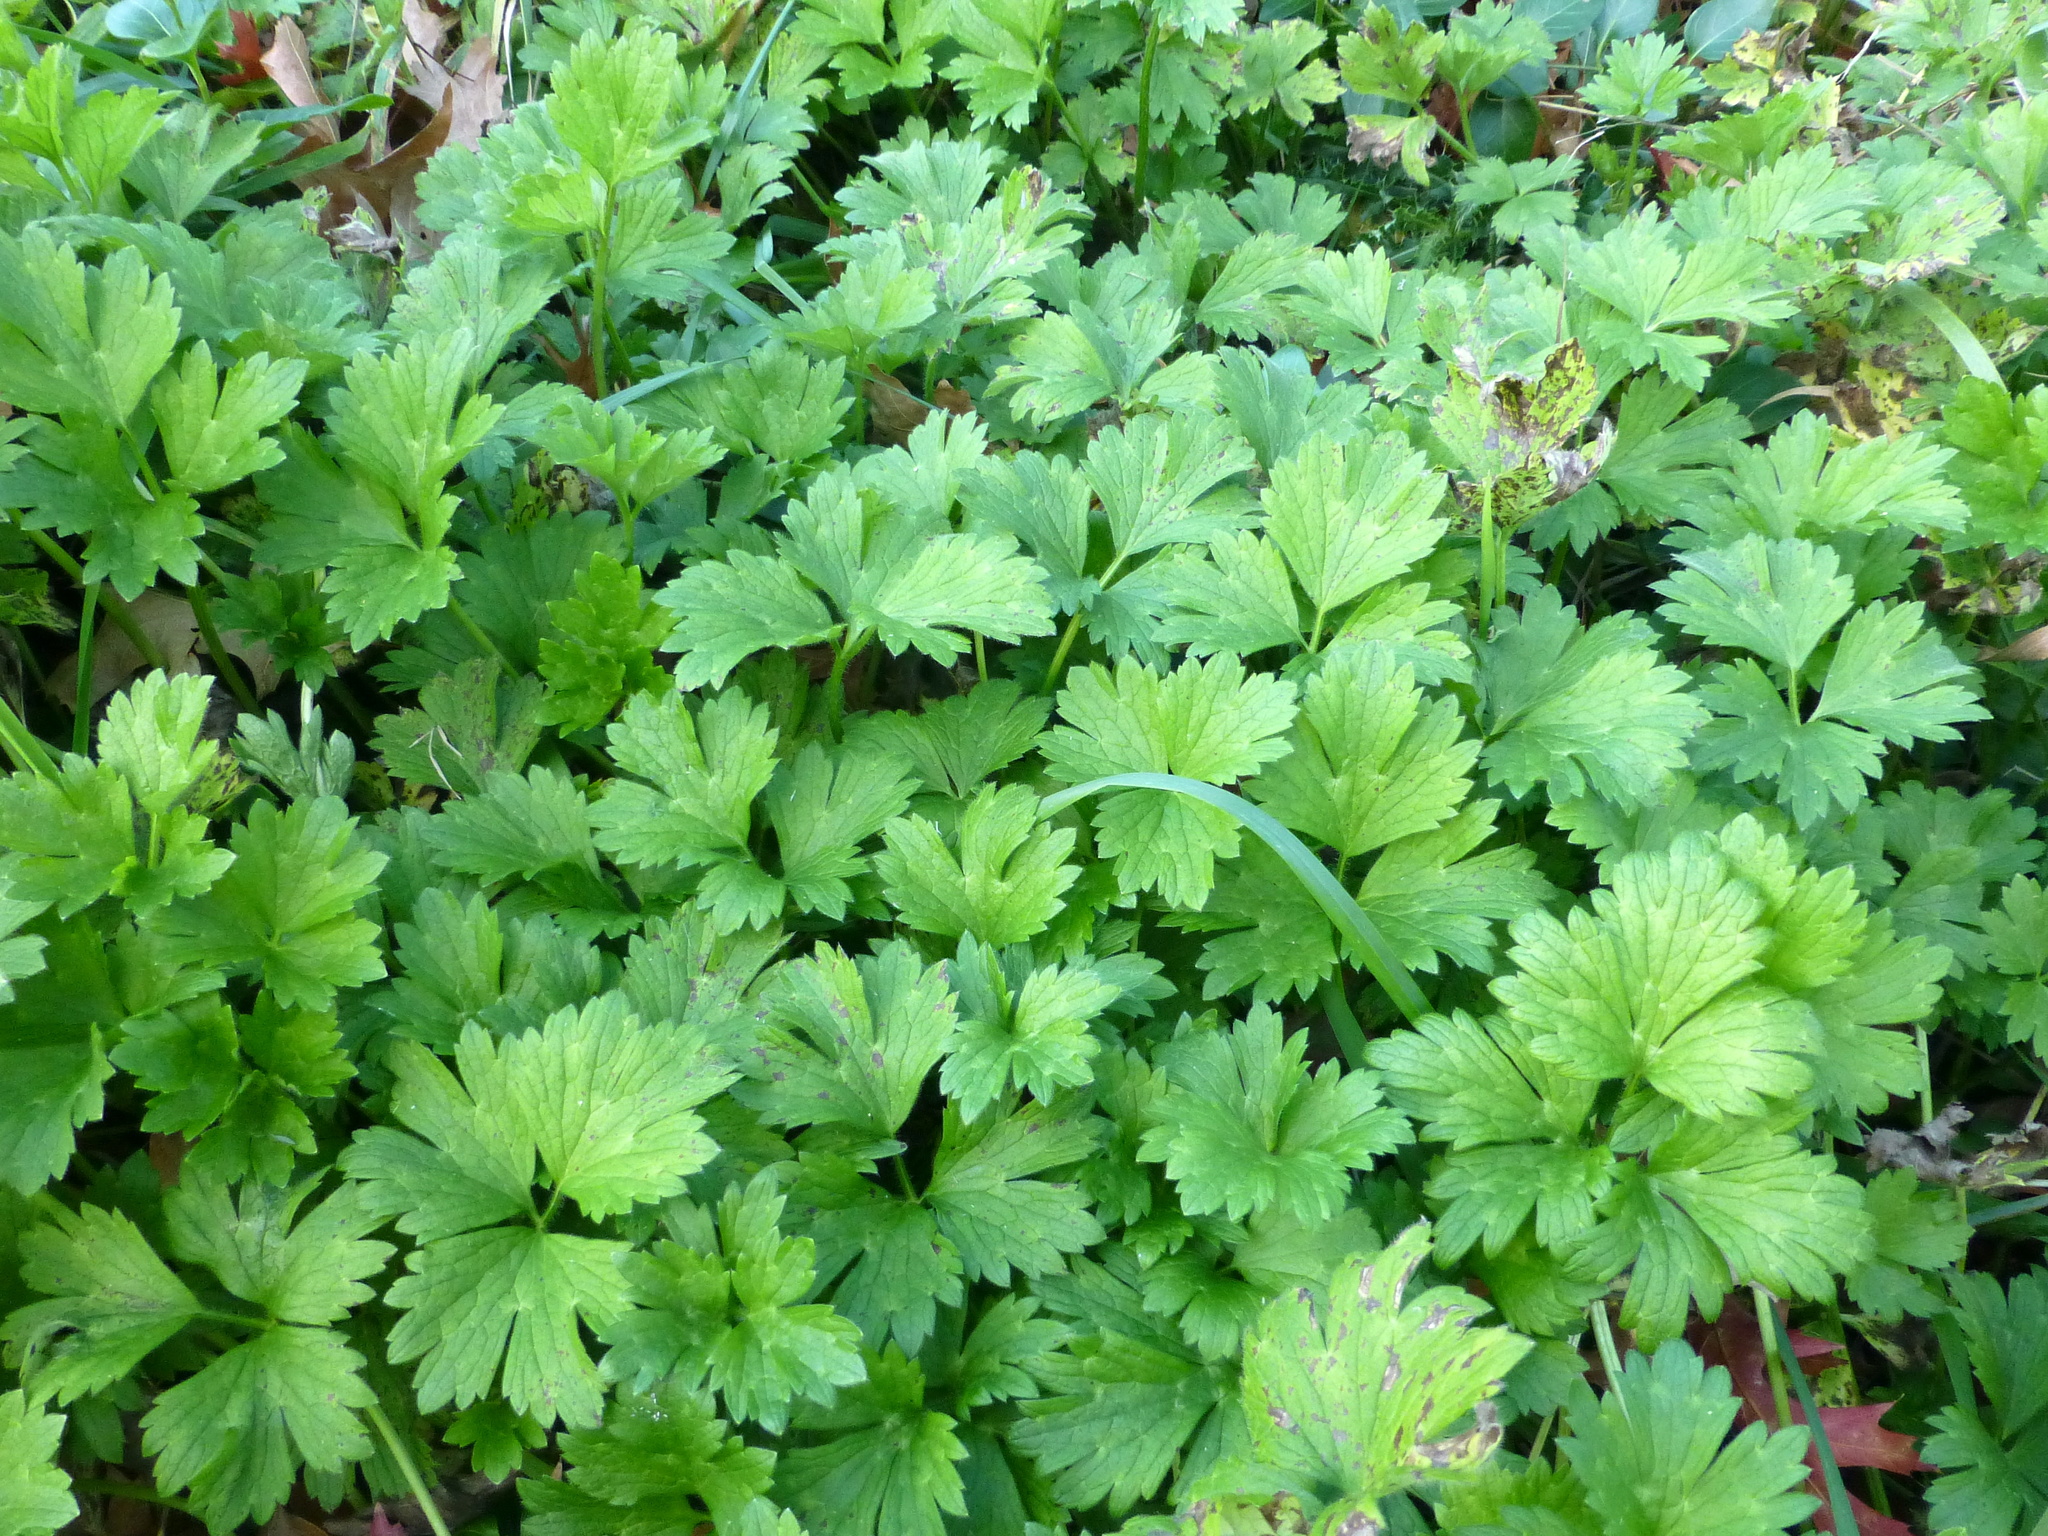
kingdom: Plantae
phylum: Tracheophyta
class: Magnoliopsida
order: Ranunculales
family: Ranunculaceae
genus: Ranunculus
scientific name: Ranunculus repens
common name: Creeping buttercup
